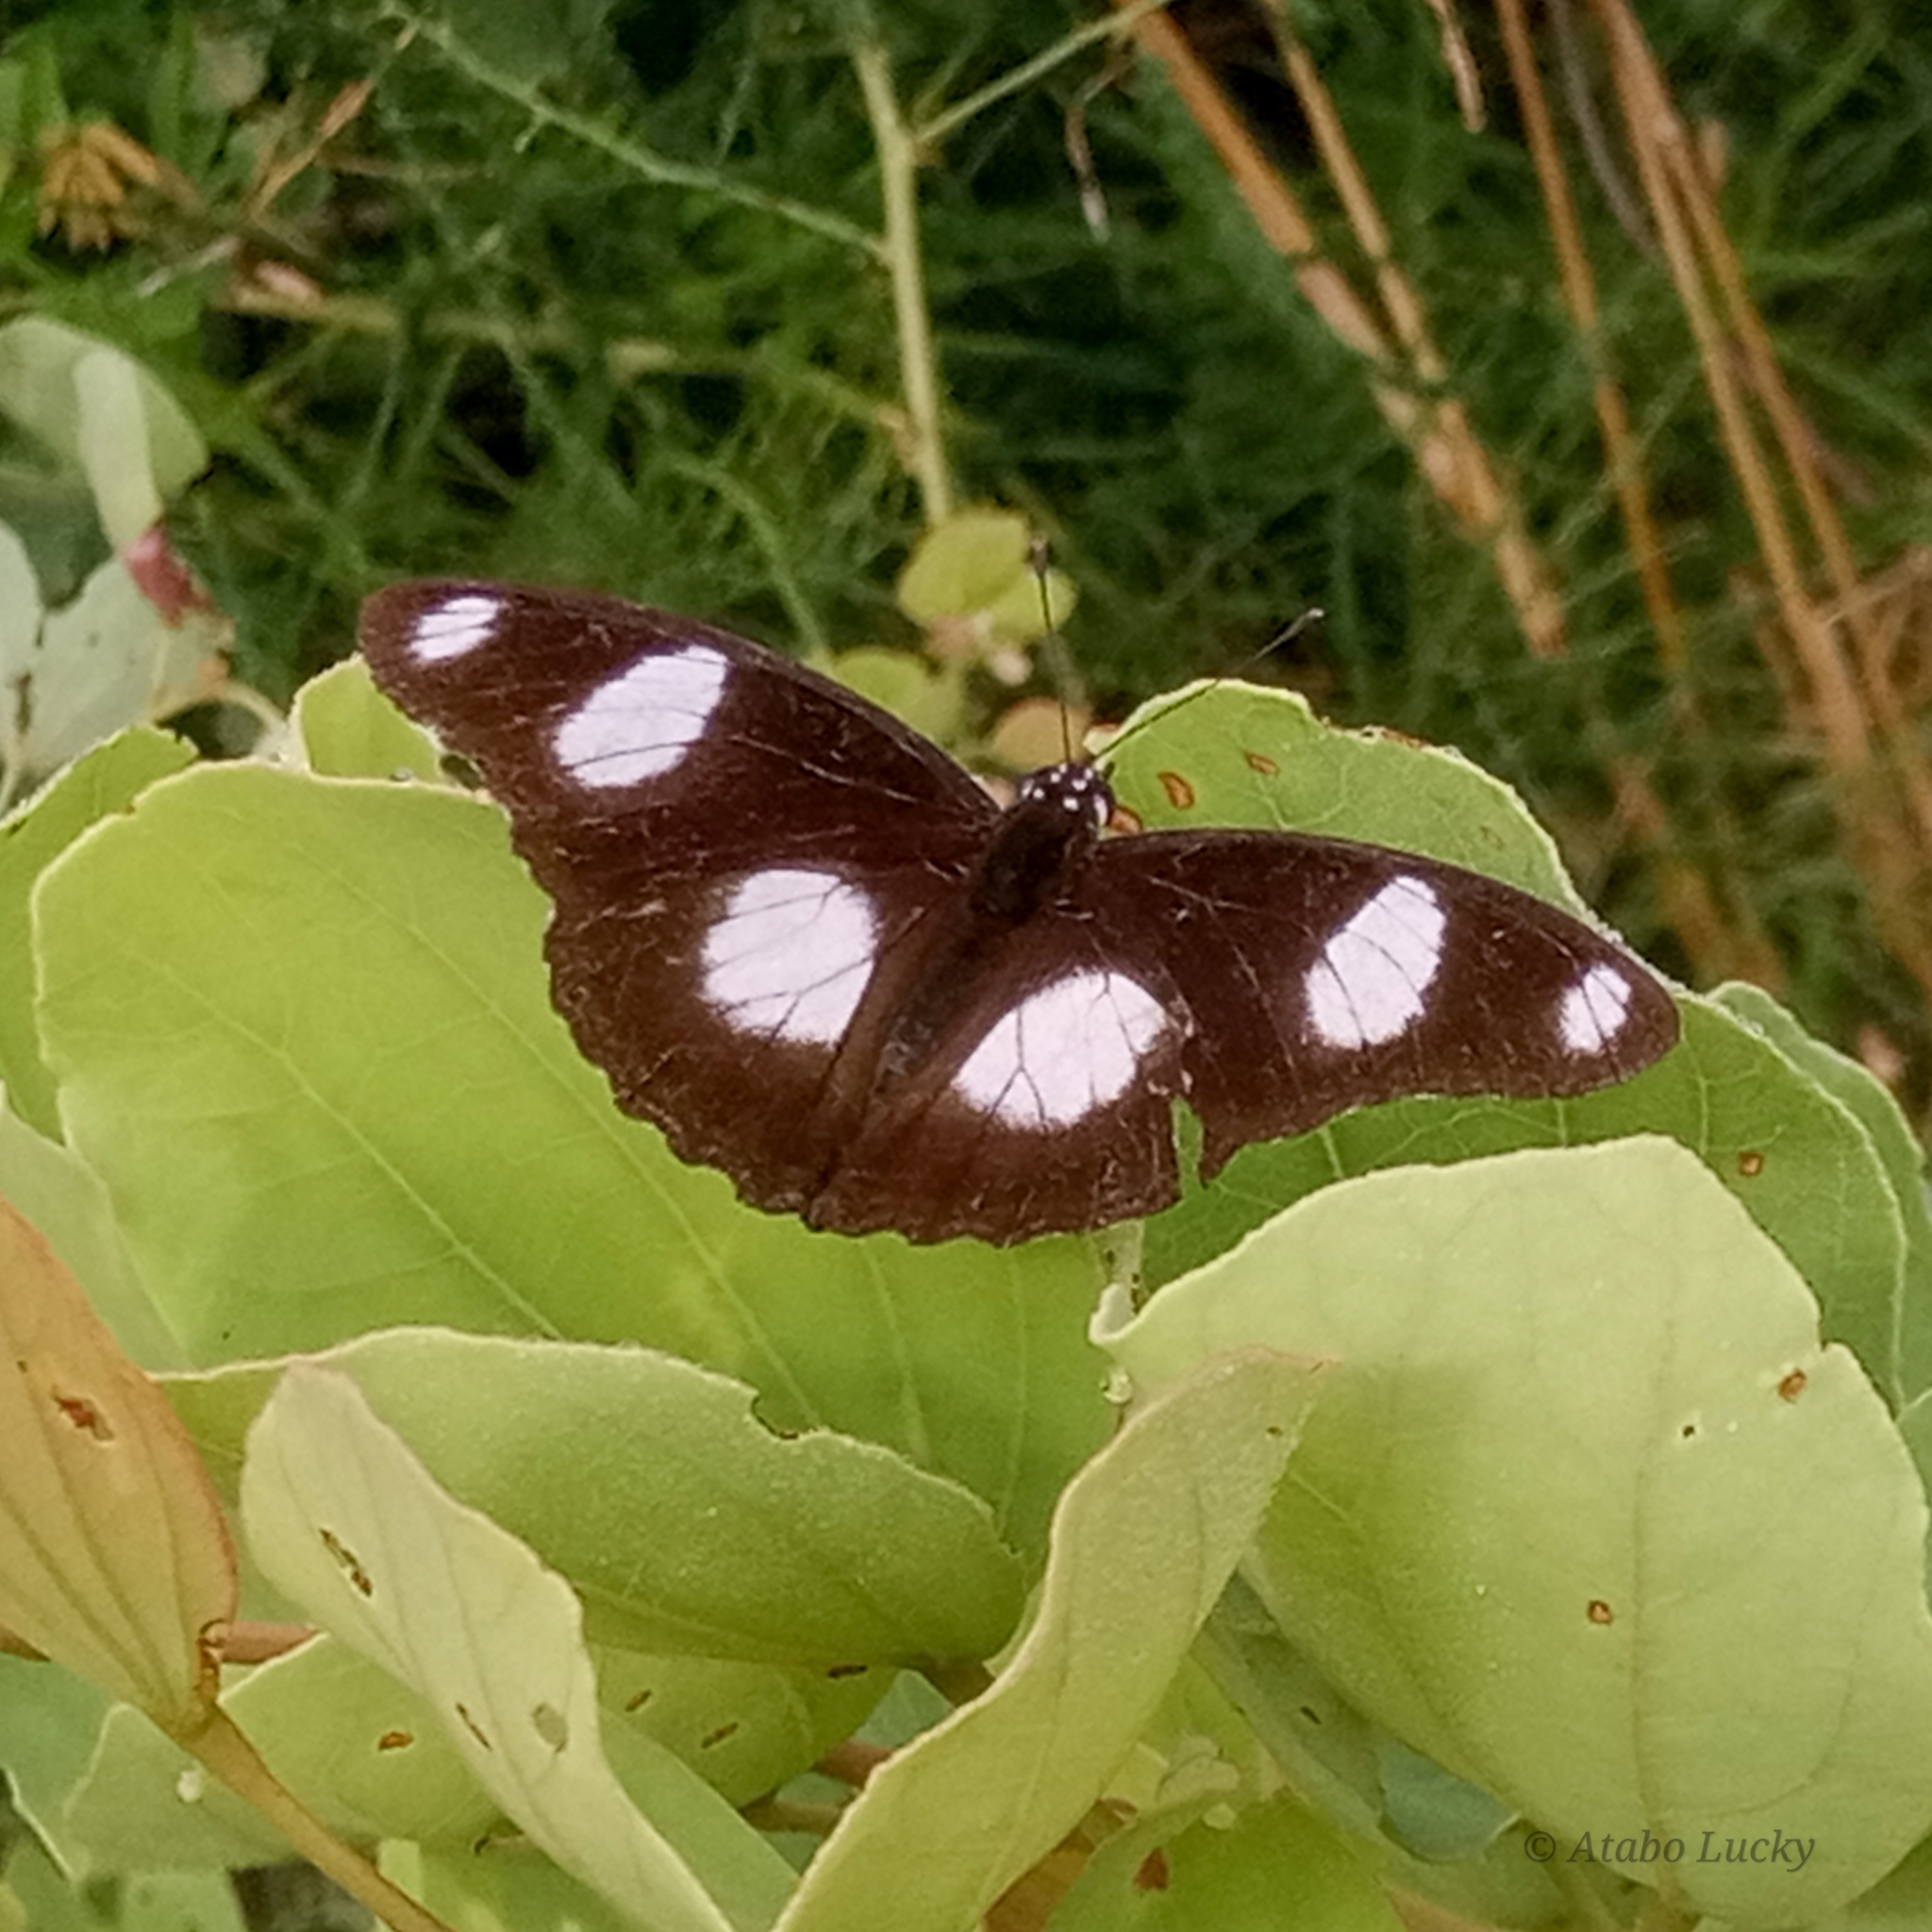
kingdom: Animalia
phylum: Arthropoda
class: Insecta
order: Lepidoptera
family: Nymphalidae
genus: Hypolimnas
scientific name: Hypolimnas misippus
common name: False plain tiger
